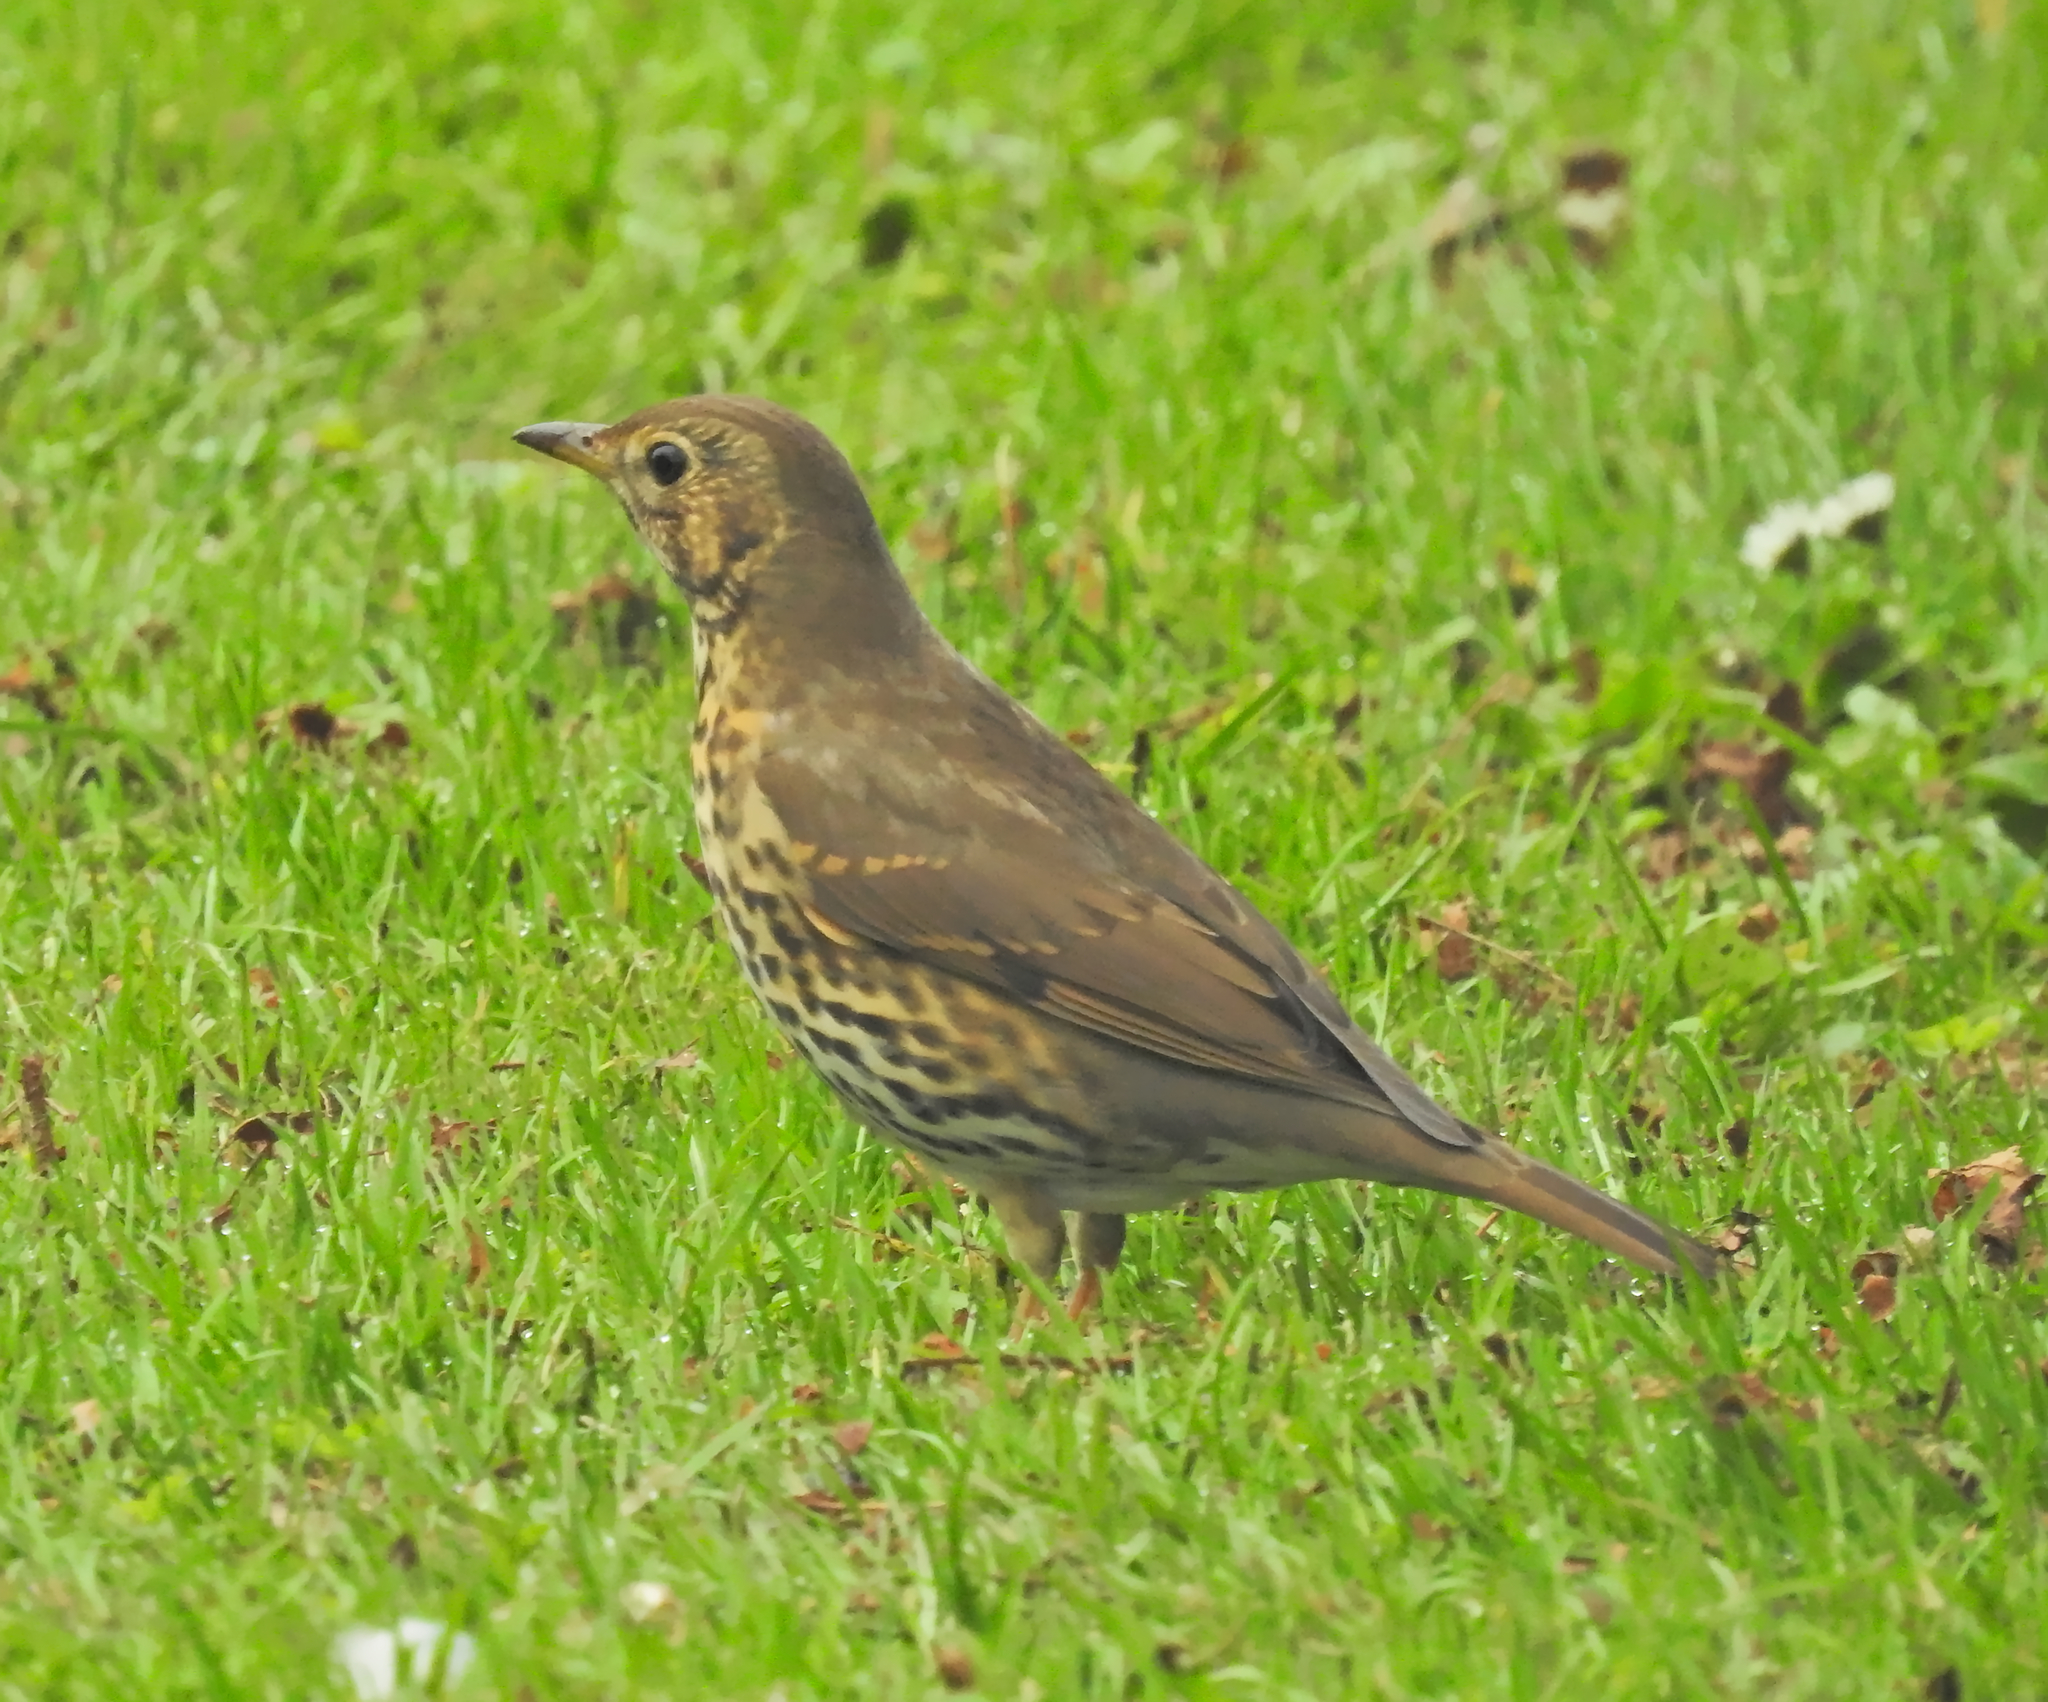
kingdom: Animalia
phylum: Chordata
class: Aves
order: Passeriformes
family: Turdidae
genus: Turdus
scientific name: Turdus philomelos
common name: Song thrush
